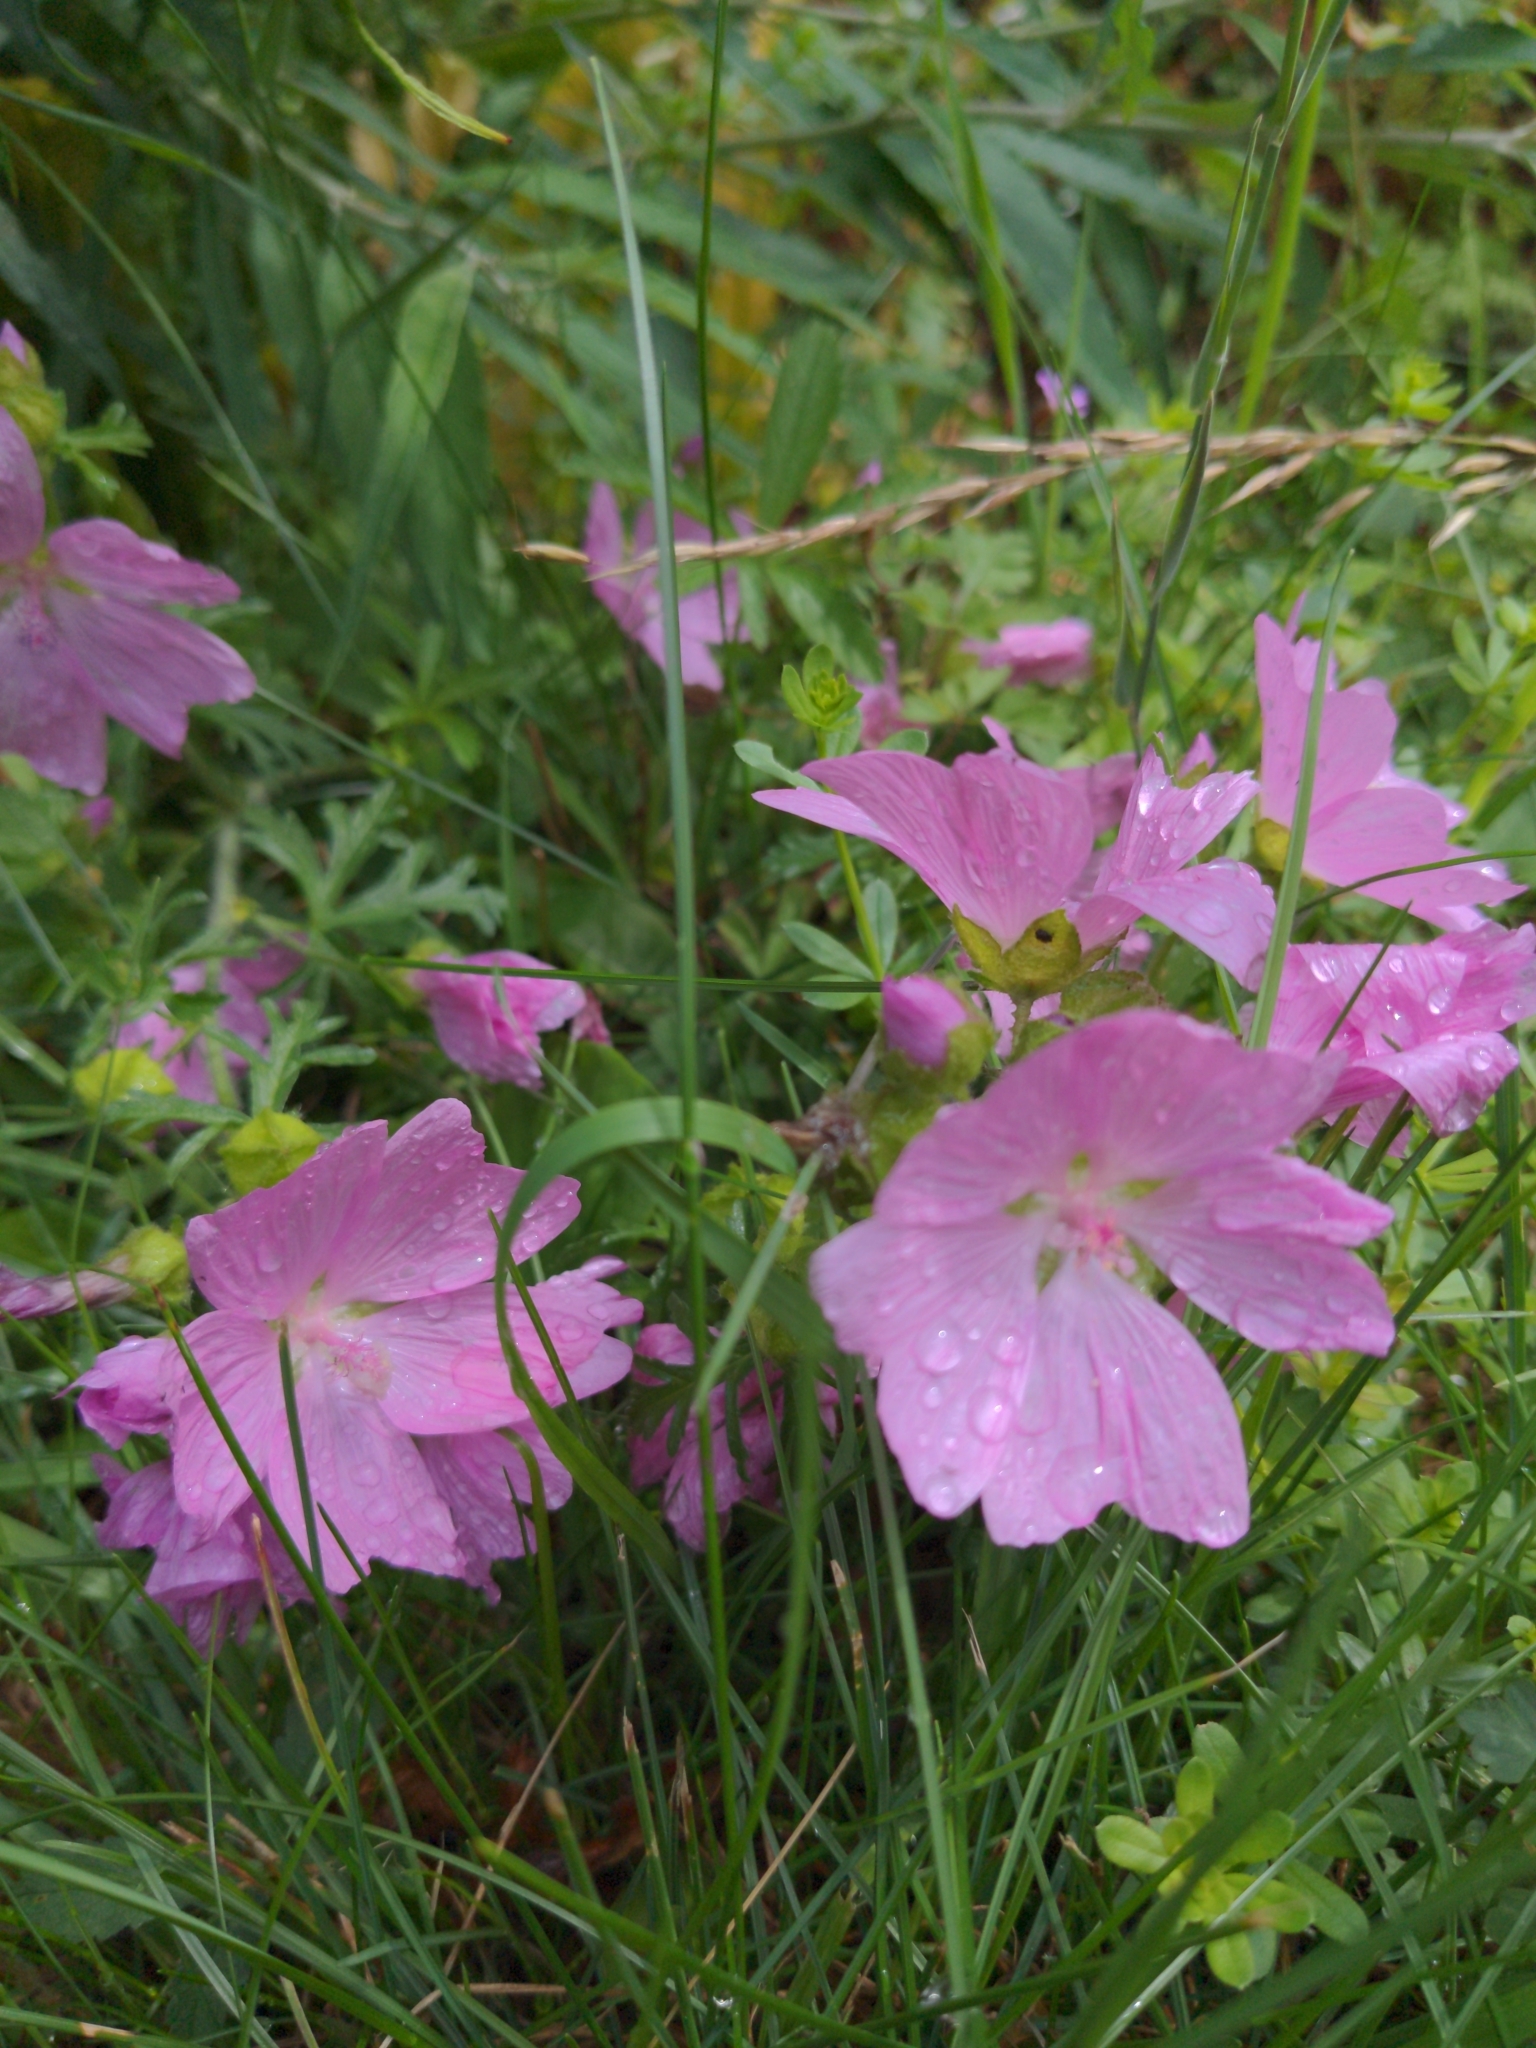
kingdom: Plantae
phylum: Tracheophyta
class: Magnoliopsida
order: Malvales
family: Malvaceae
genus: Malva
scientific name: Malva moschata
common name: Musk mallow
